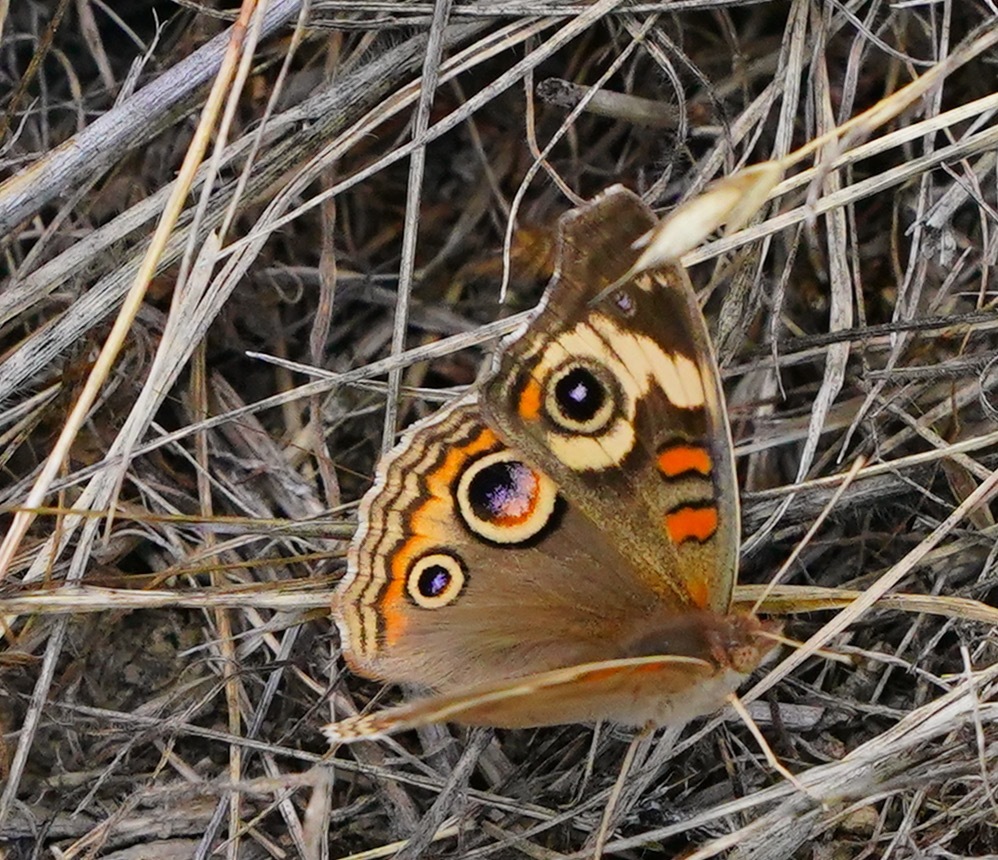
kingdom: Animalia
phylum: Arthropoda
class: Insecta
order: Lepidoptera
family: Nymphalidae
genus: Junonia
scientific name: Junonia grisea
